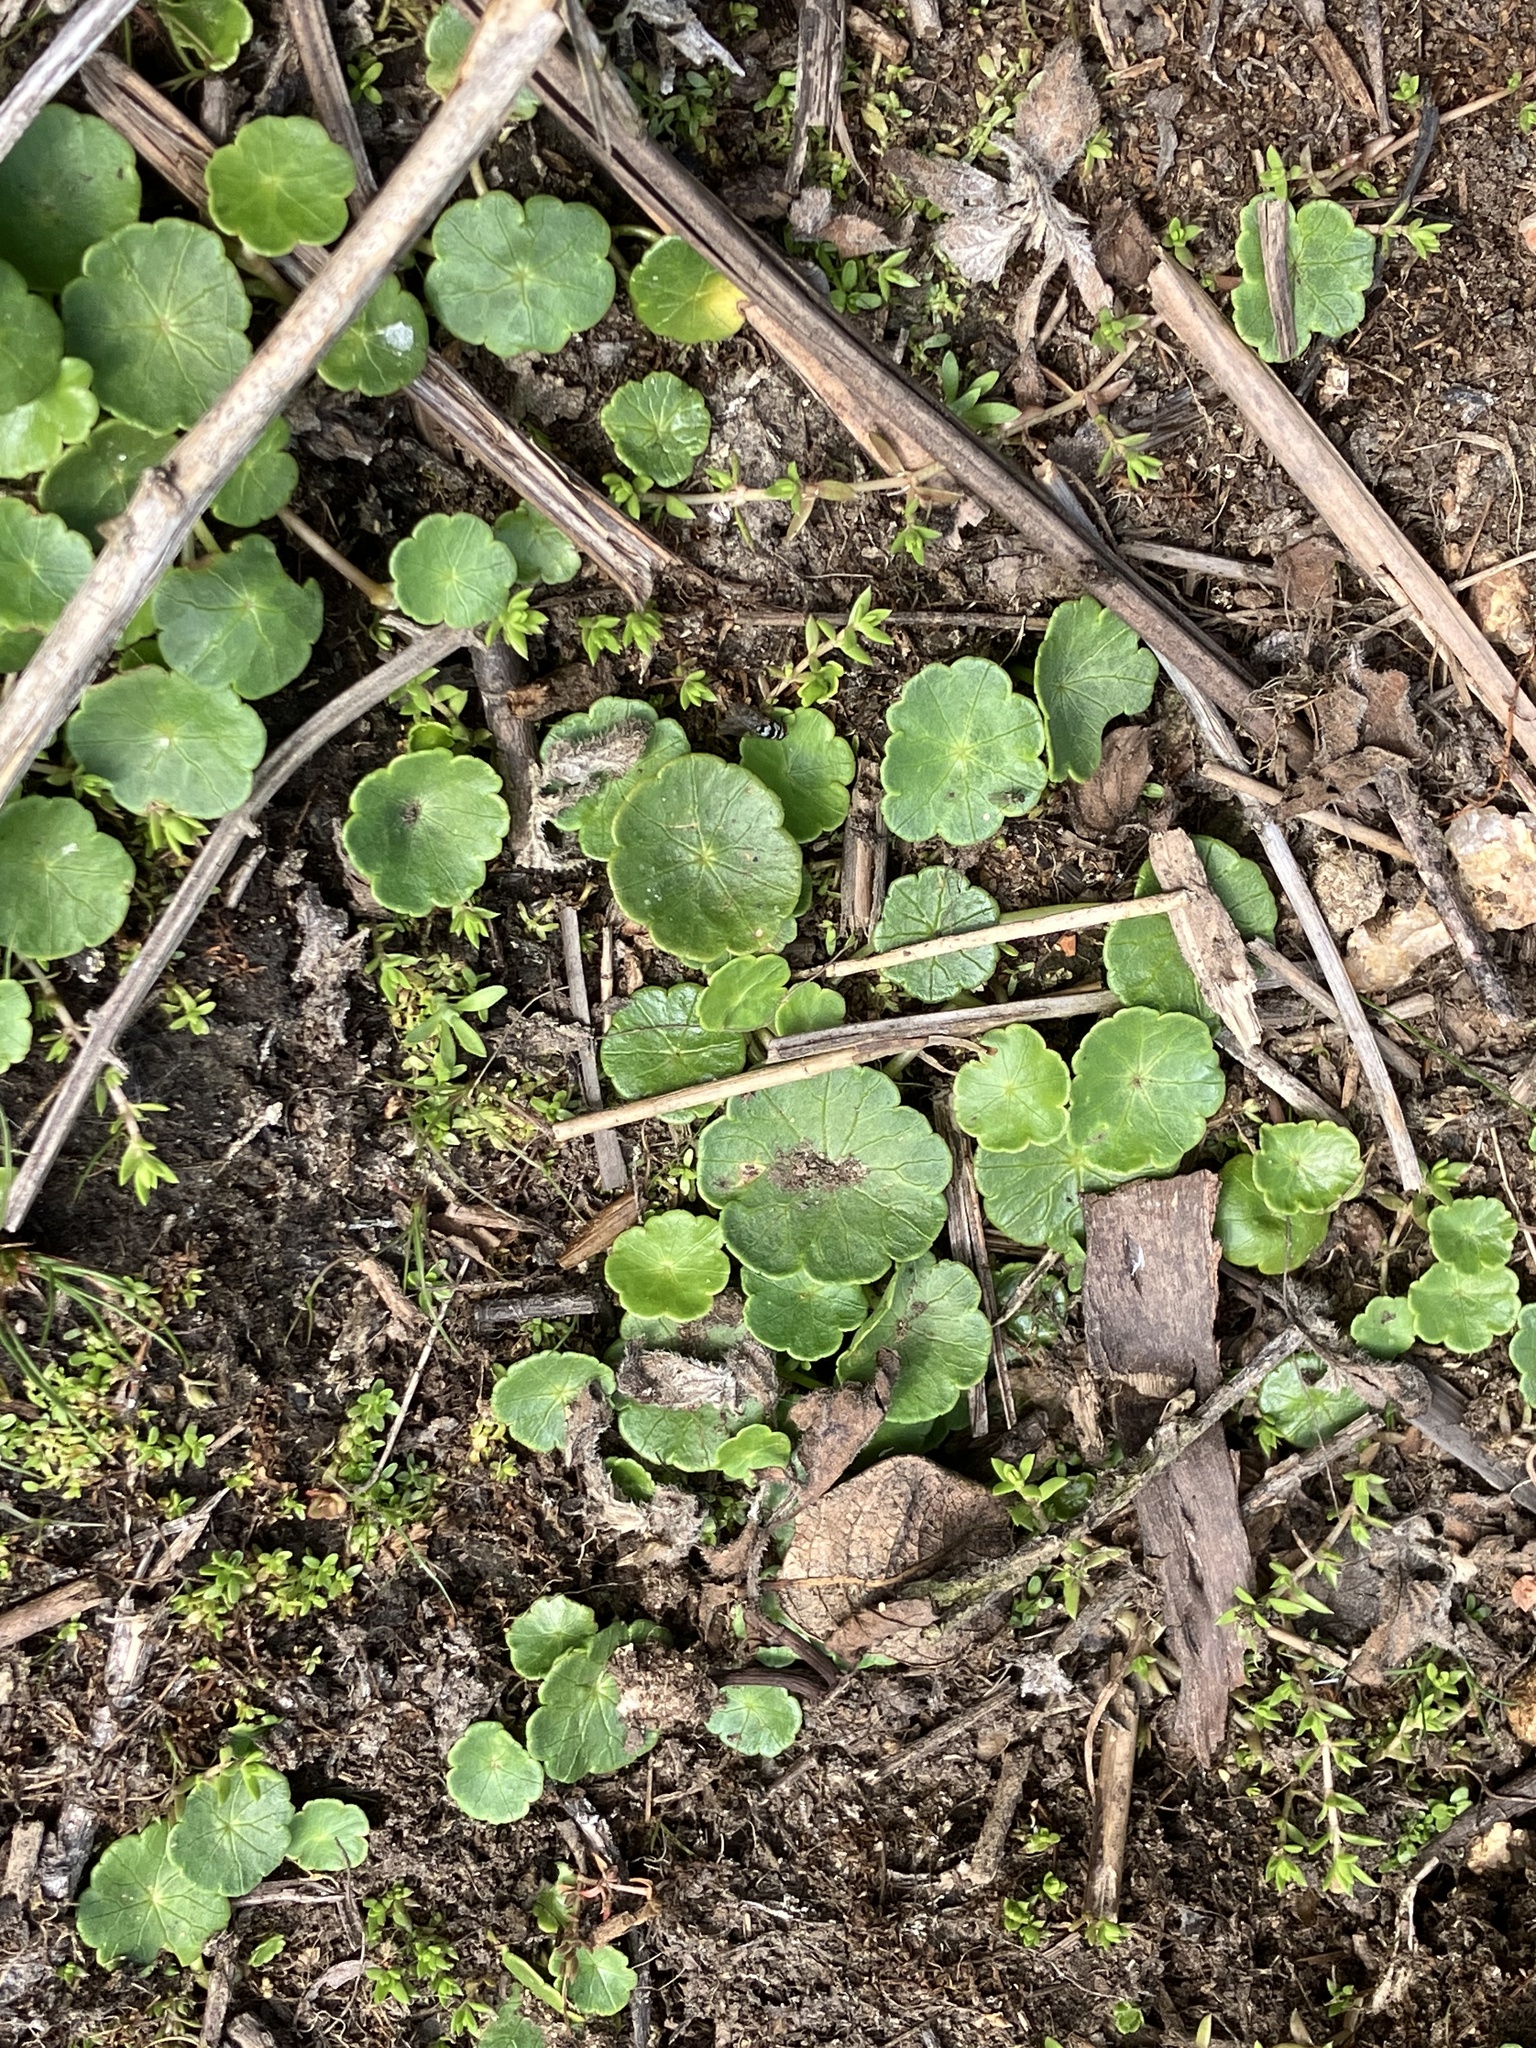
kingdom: Plantae
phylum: Tracheophyta
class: Magnoliopsida
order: Apiales
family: Araliaceae
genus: Hydrocotyle
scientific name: Hydrocotyle vulgaris
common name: Marsh pennywort
